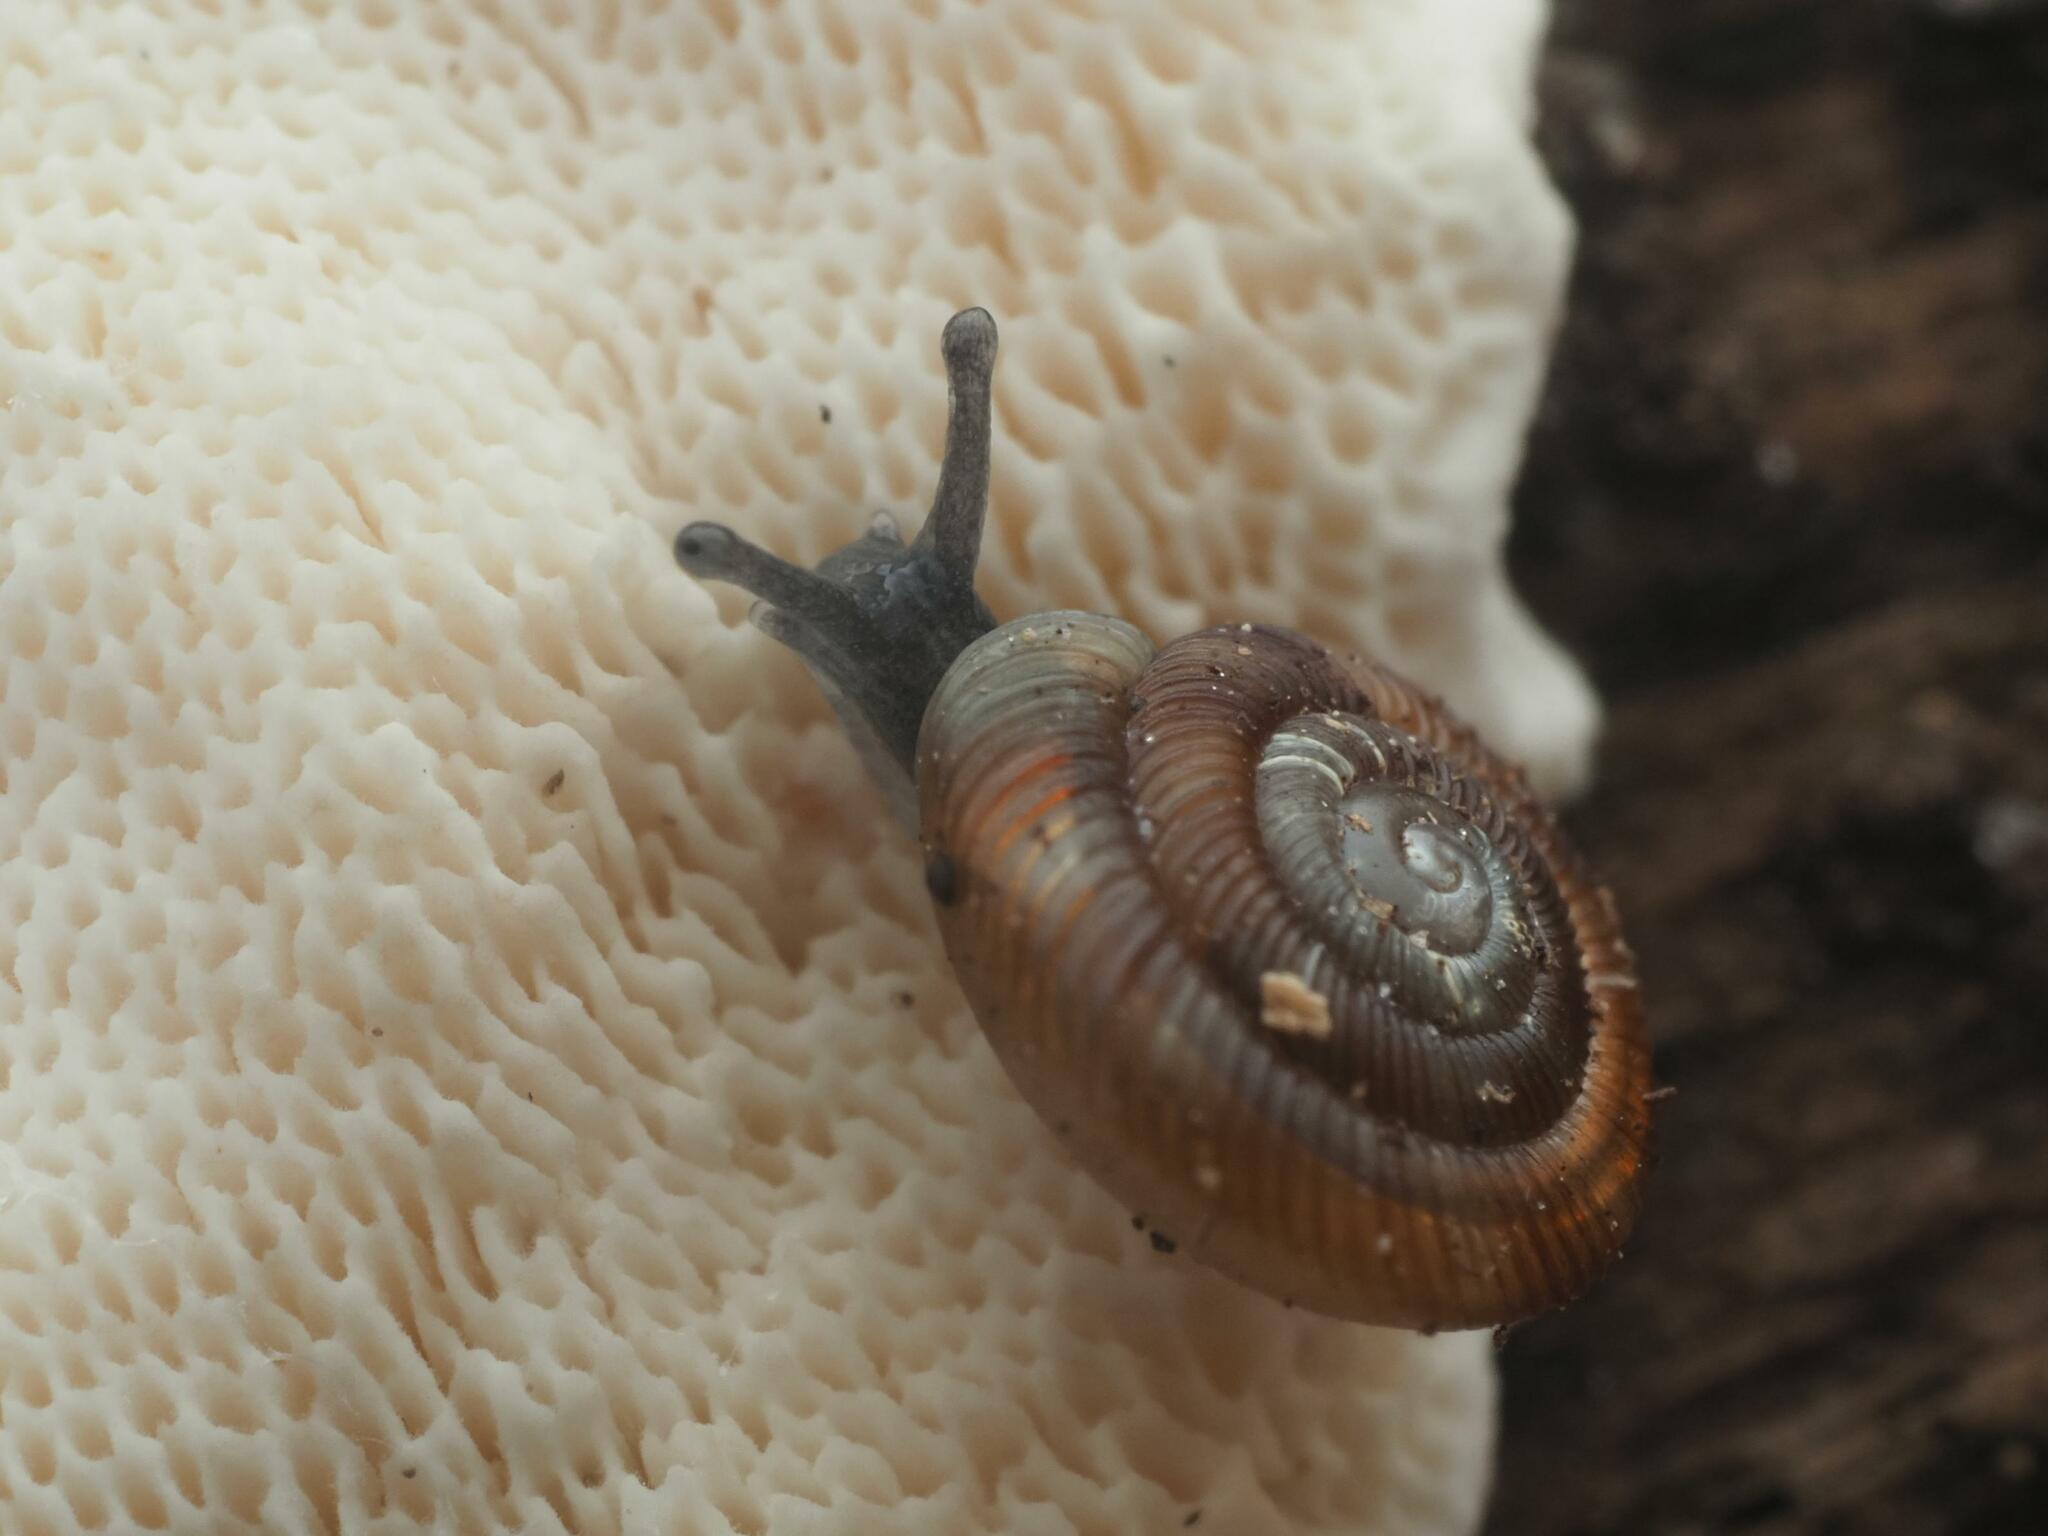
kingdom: Animalia
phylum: Mollusca
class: Gastropoda
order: Stylommatophora
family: Discidae
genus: Discus
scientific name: Discus rotundatus
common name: Rounded snail
